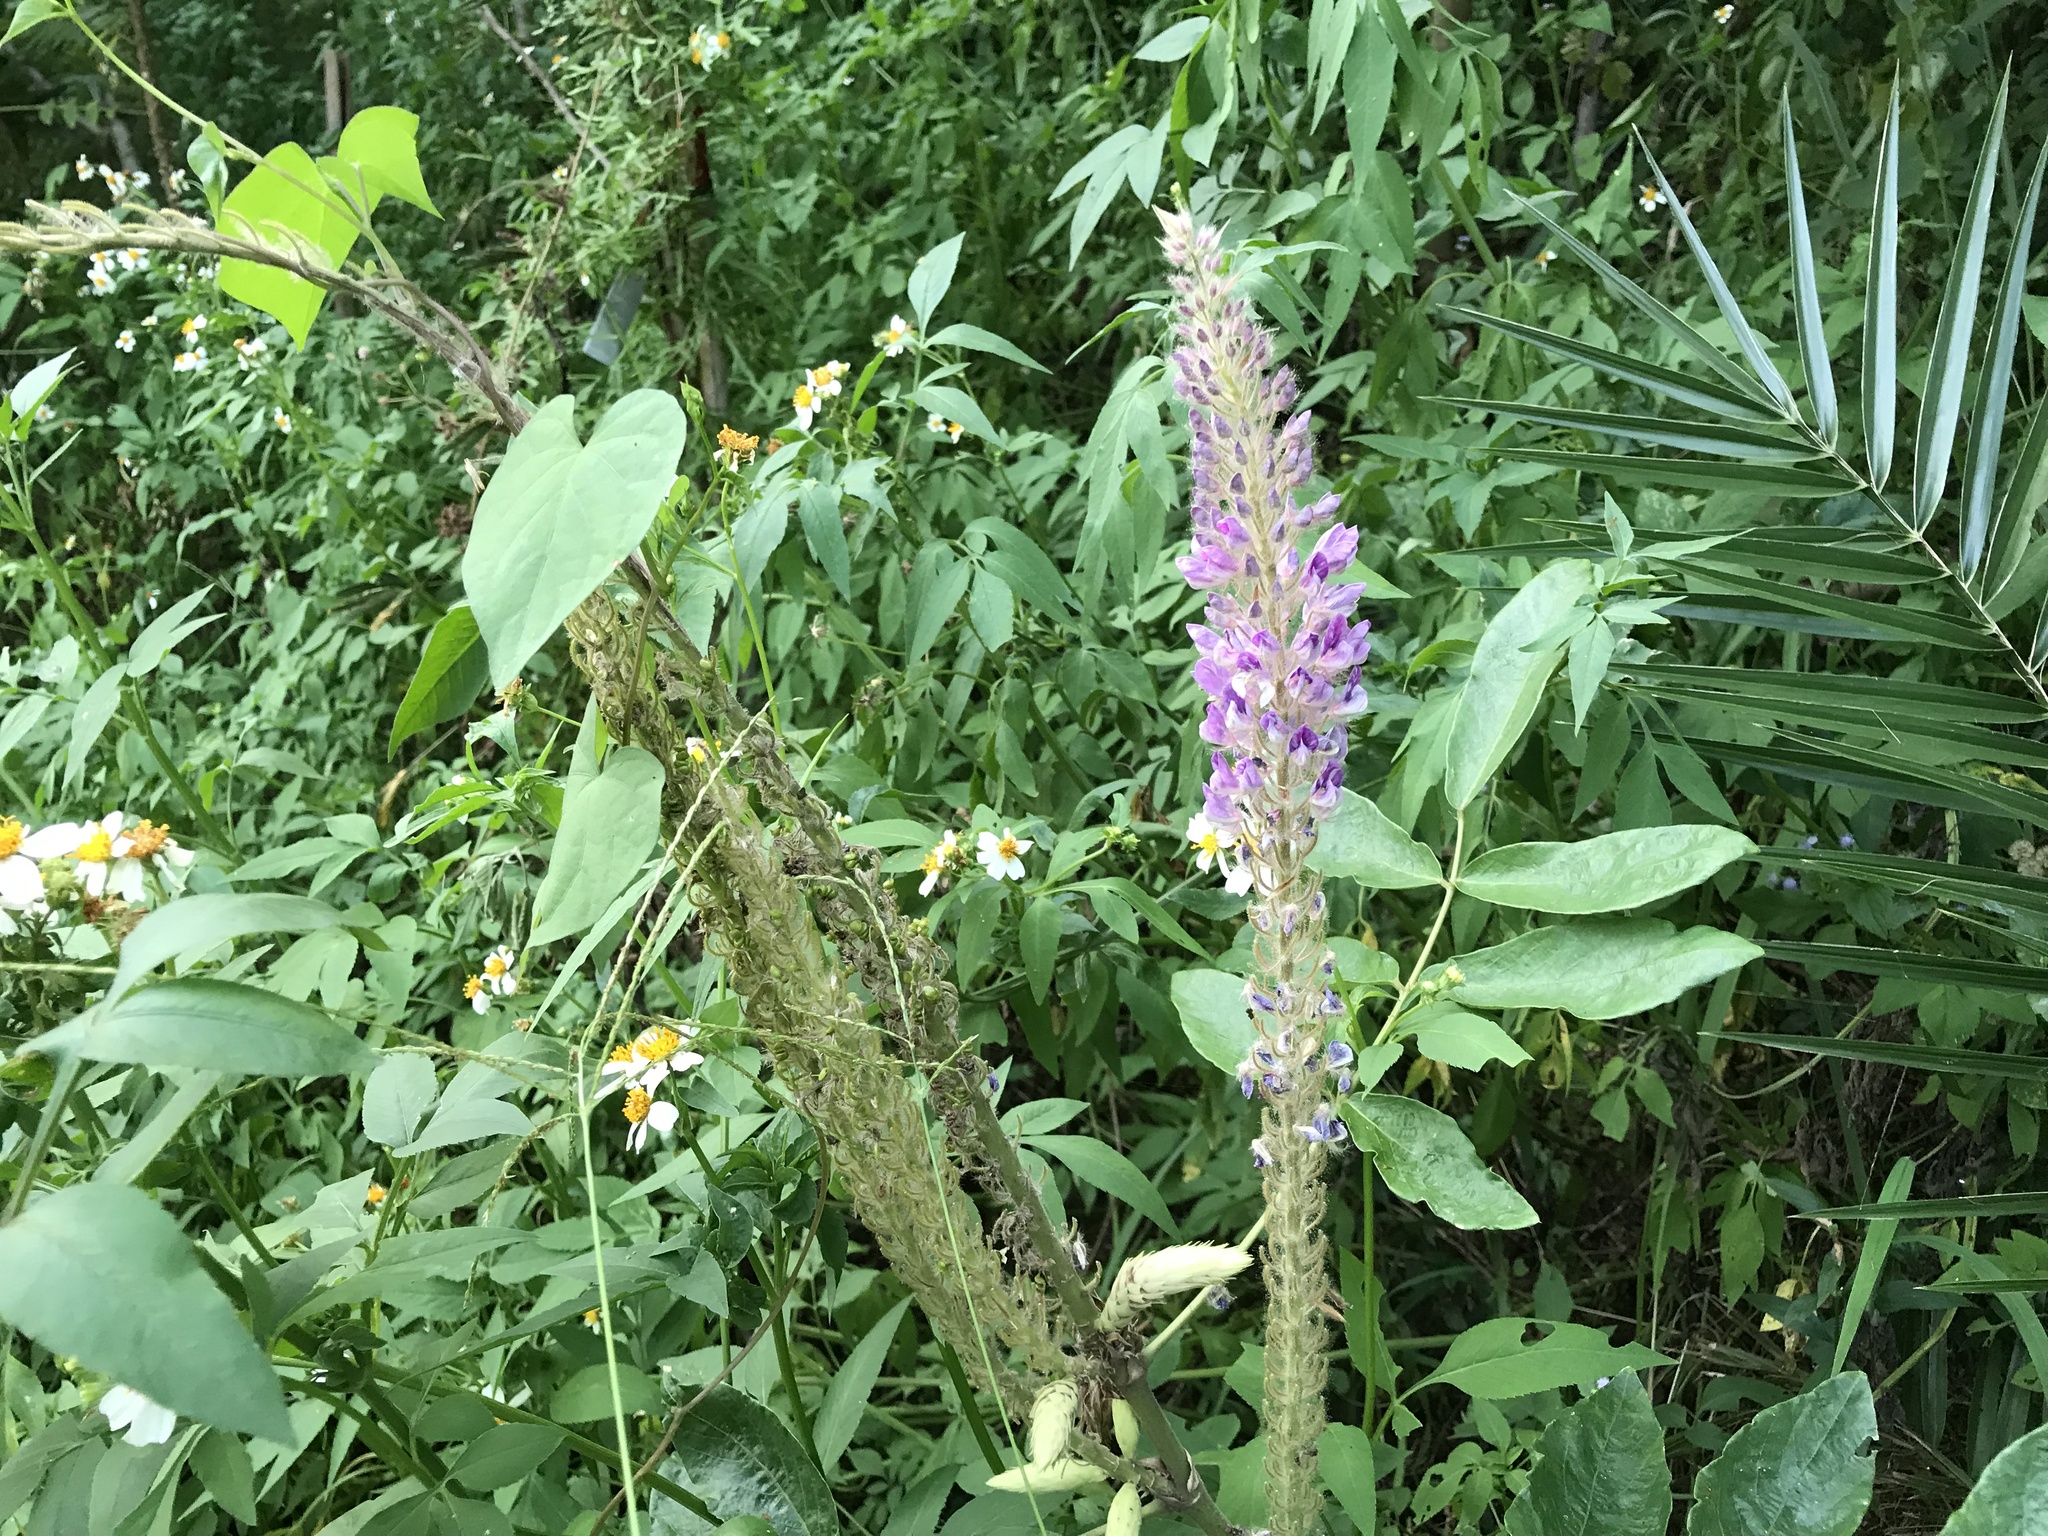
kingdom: Plantae
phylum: Tracheophyta
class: Magnoliopsida
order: Fabales
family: Fabaceae
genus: Uraria
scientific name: Uraria crinita
